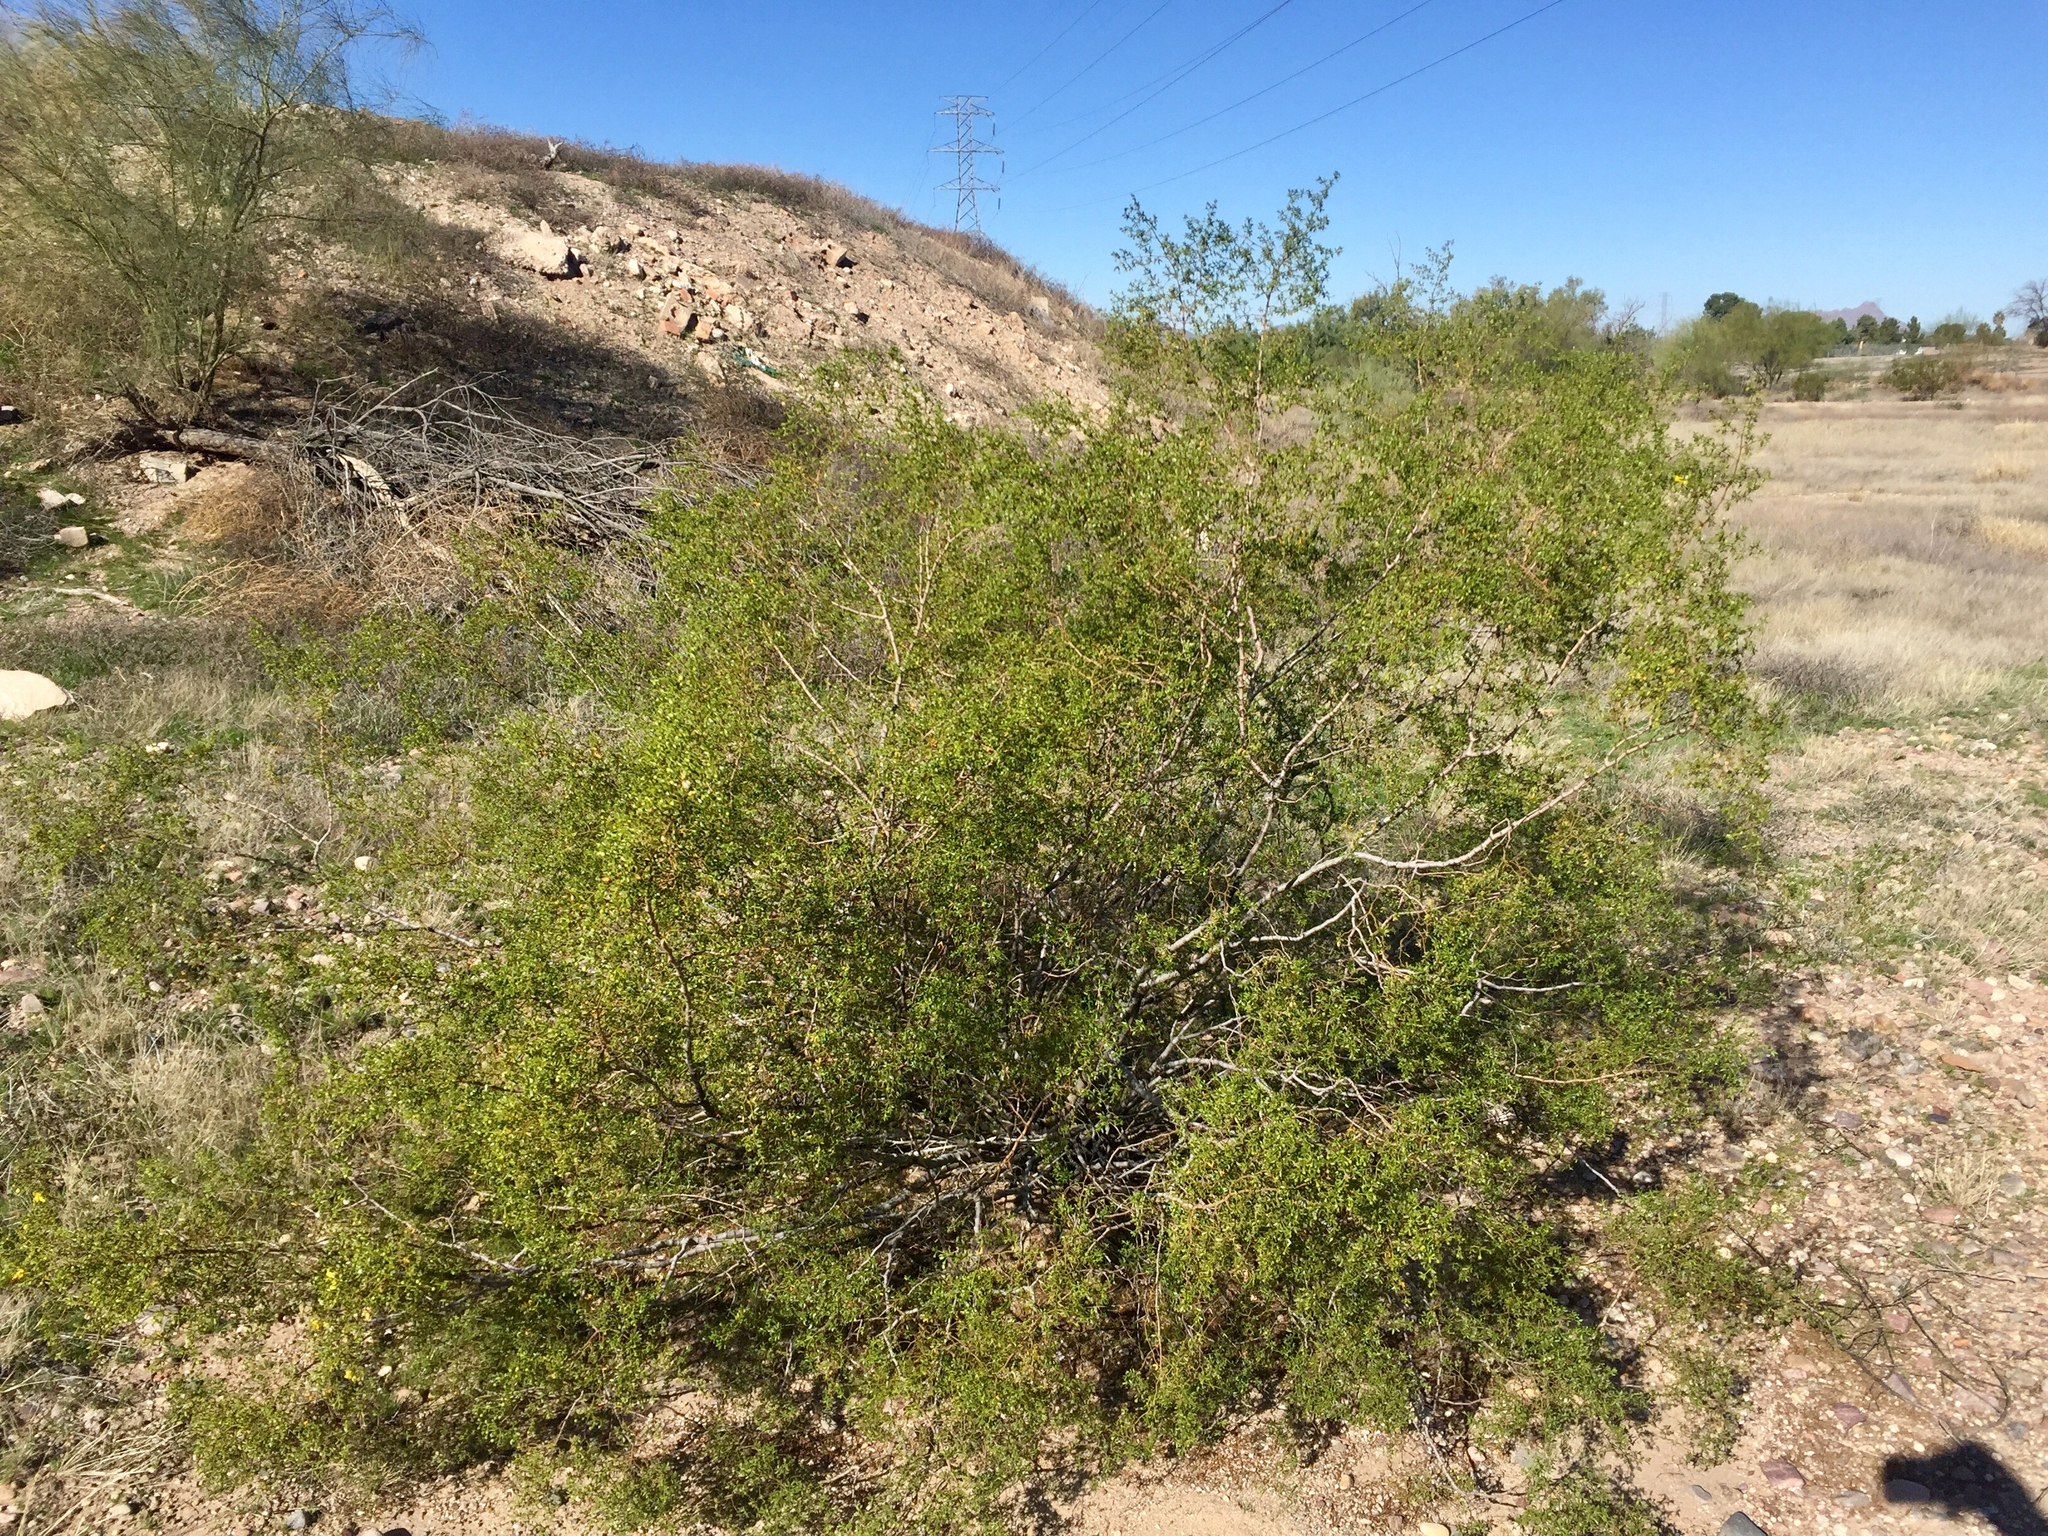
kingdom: Plantae
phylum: Tracheophyta
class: Magnoliopsida
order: Zygophyllales
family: Zygophyllaceae
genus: Larrea
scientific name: Larrea tridentata
